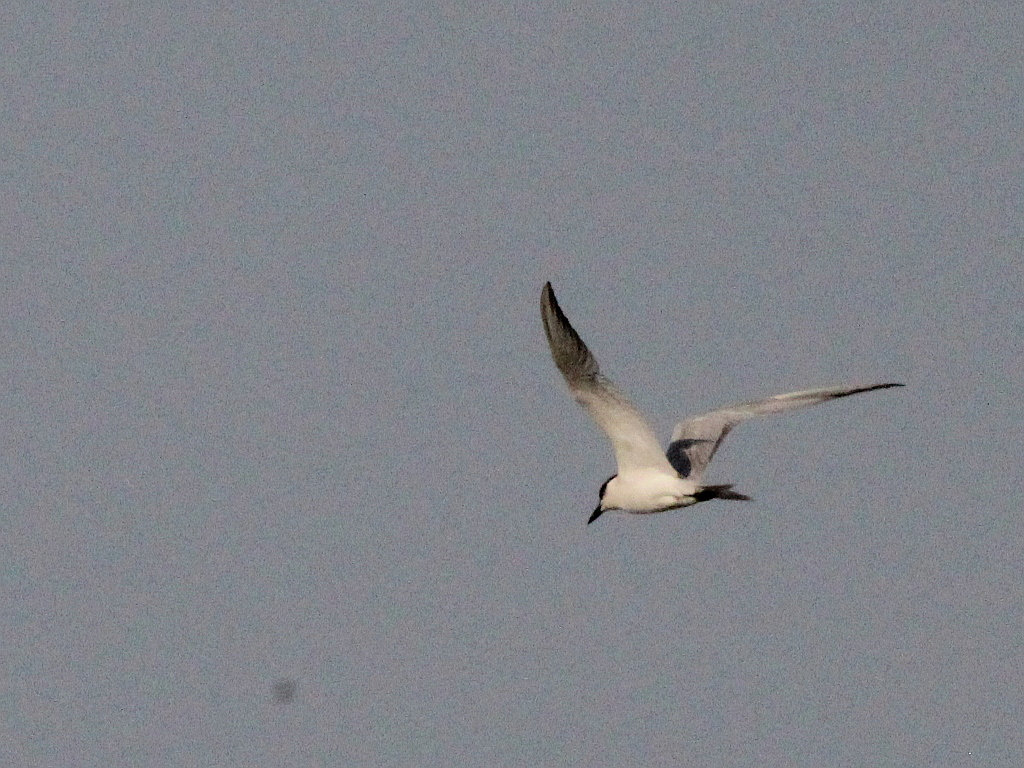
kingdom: Animalia
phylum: Chordata
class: Aves
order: Charadriiformes
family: Laridae
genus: Gelochelidon
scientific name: Gelochelidon nilotica
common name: Gull-billed tern
